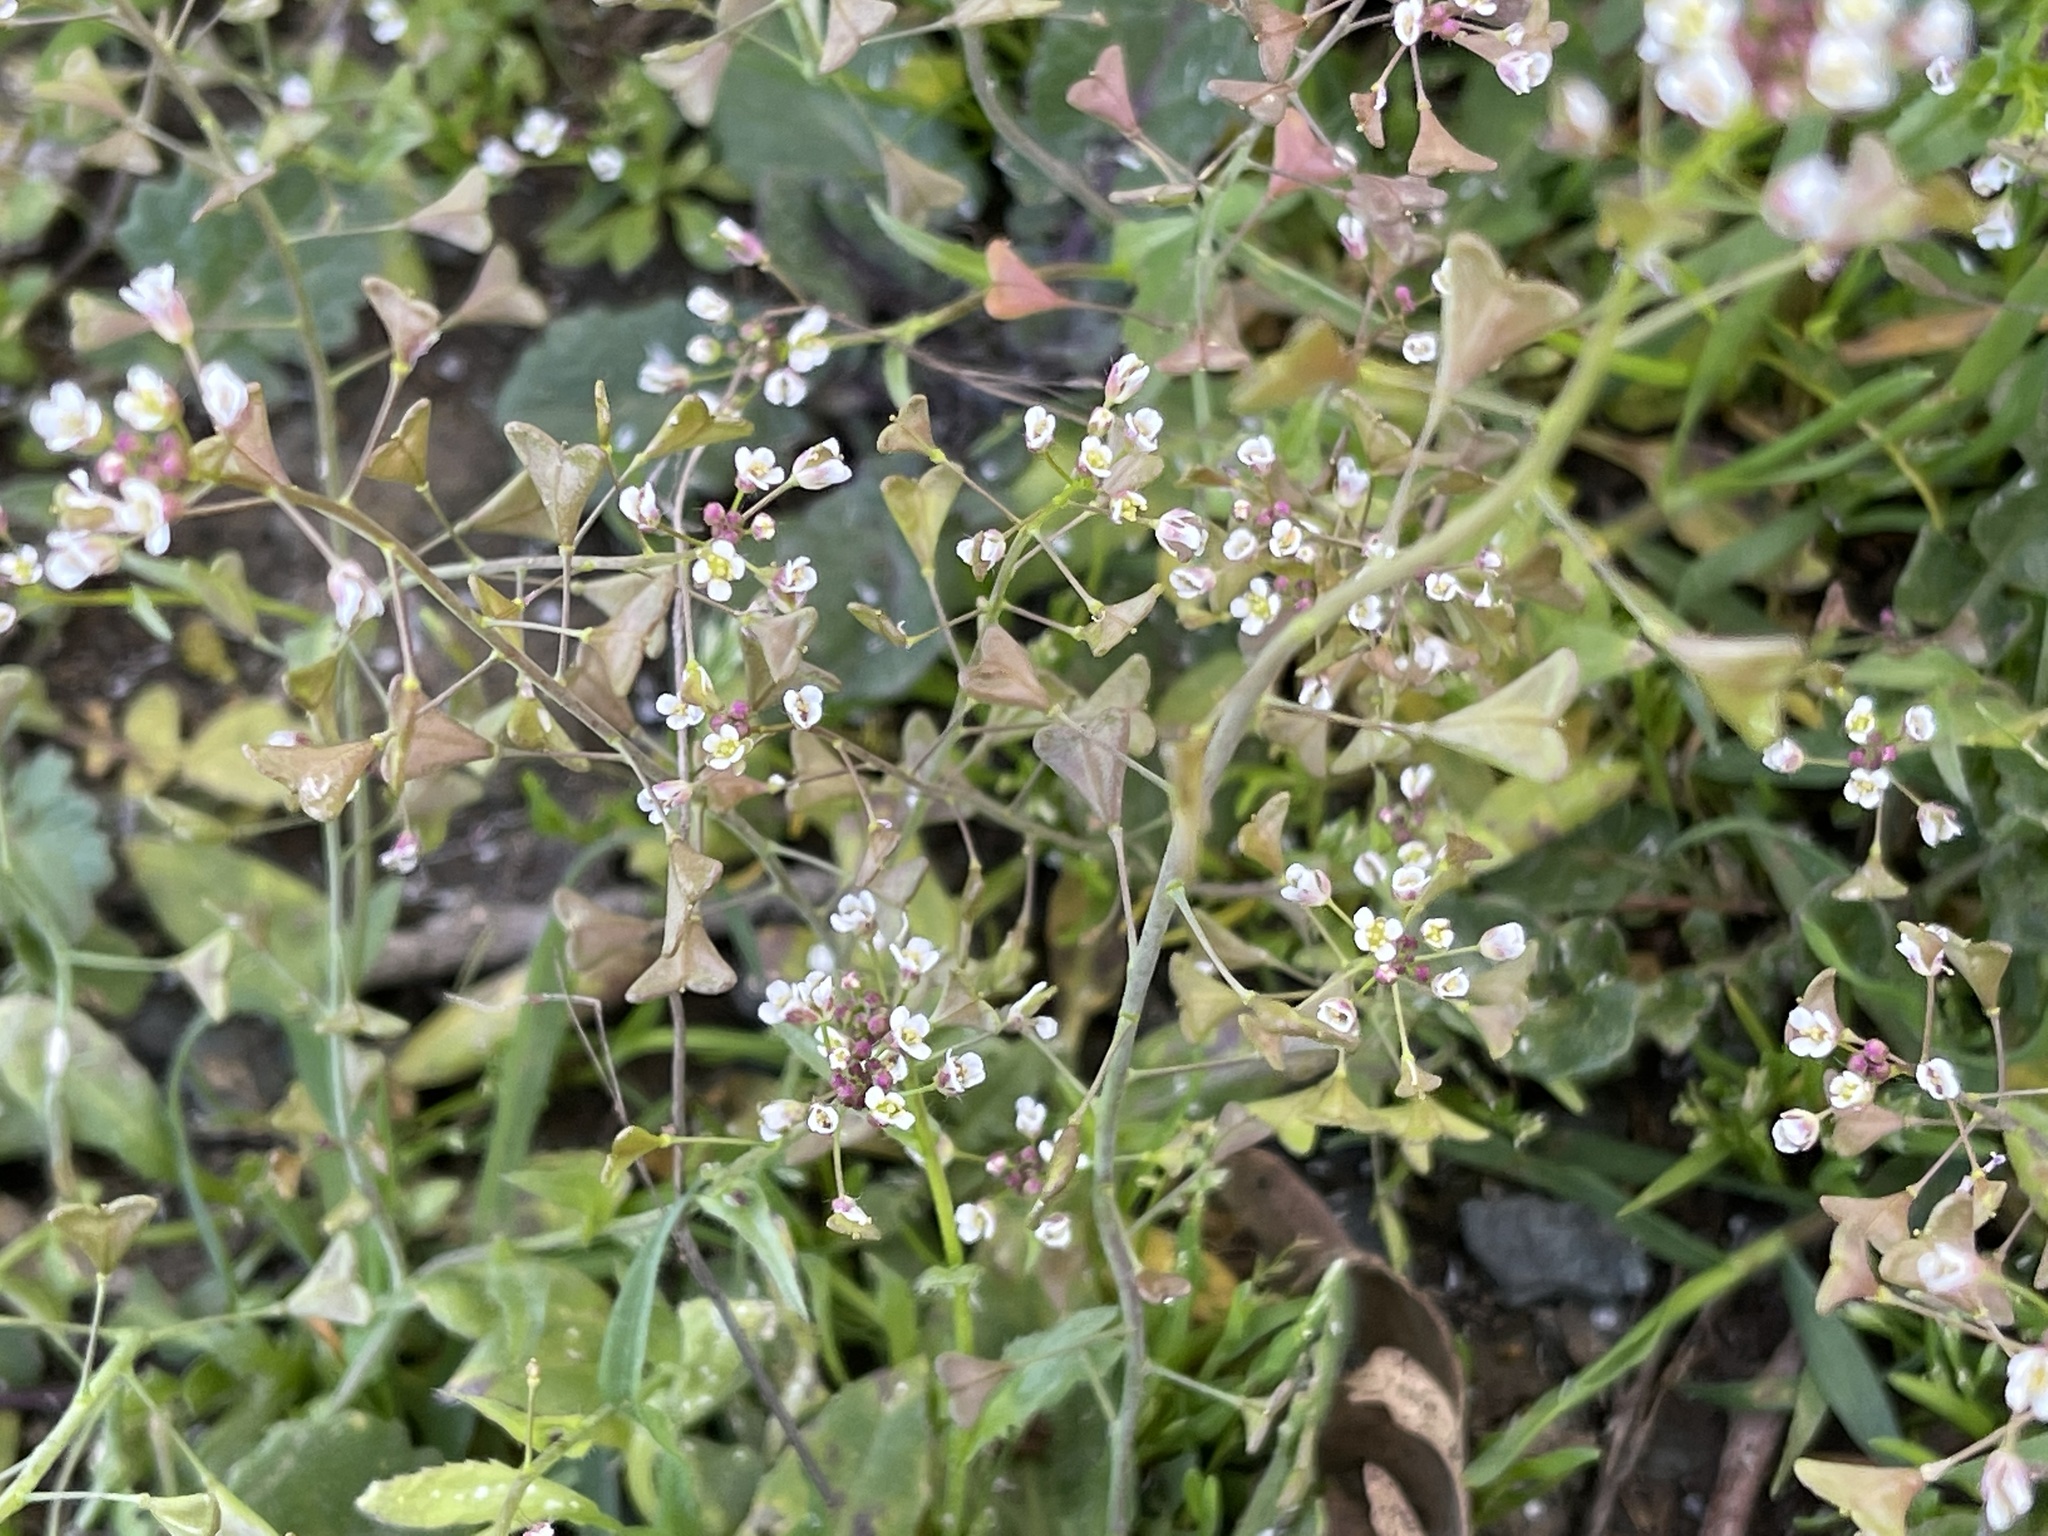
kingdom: Plantae
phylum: Tracheophyta
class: Magnoliopsida
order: Brassicales
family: Brassicaceae
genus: Capsella
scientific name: Capsella bursa-pastoris
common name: Shepherd's purse
